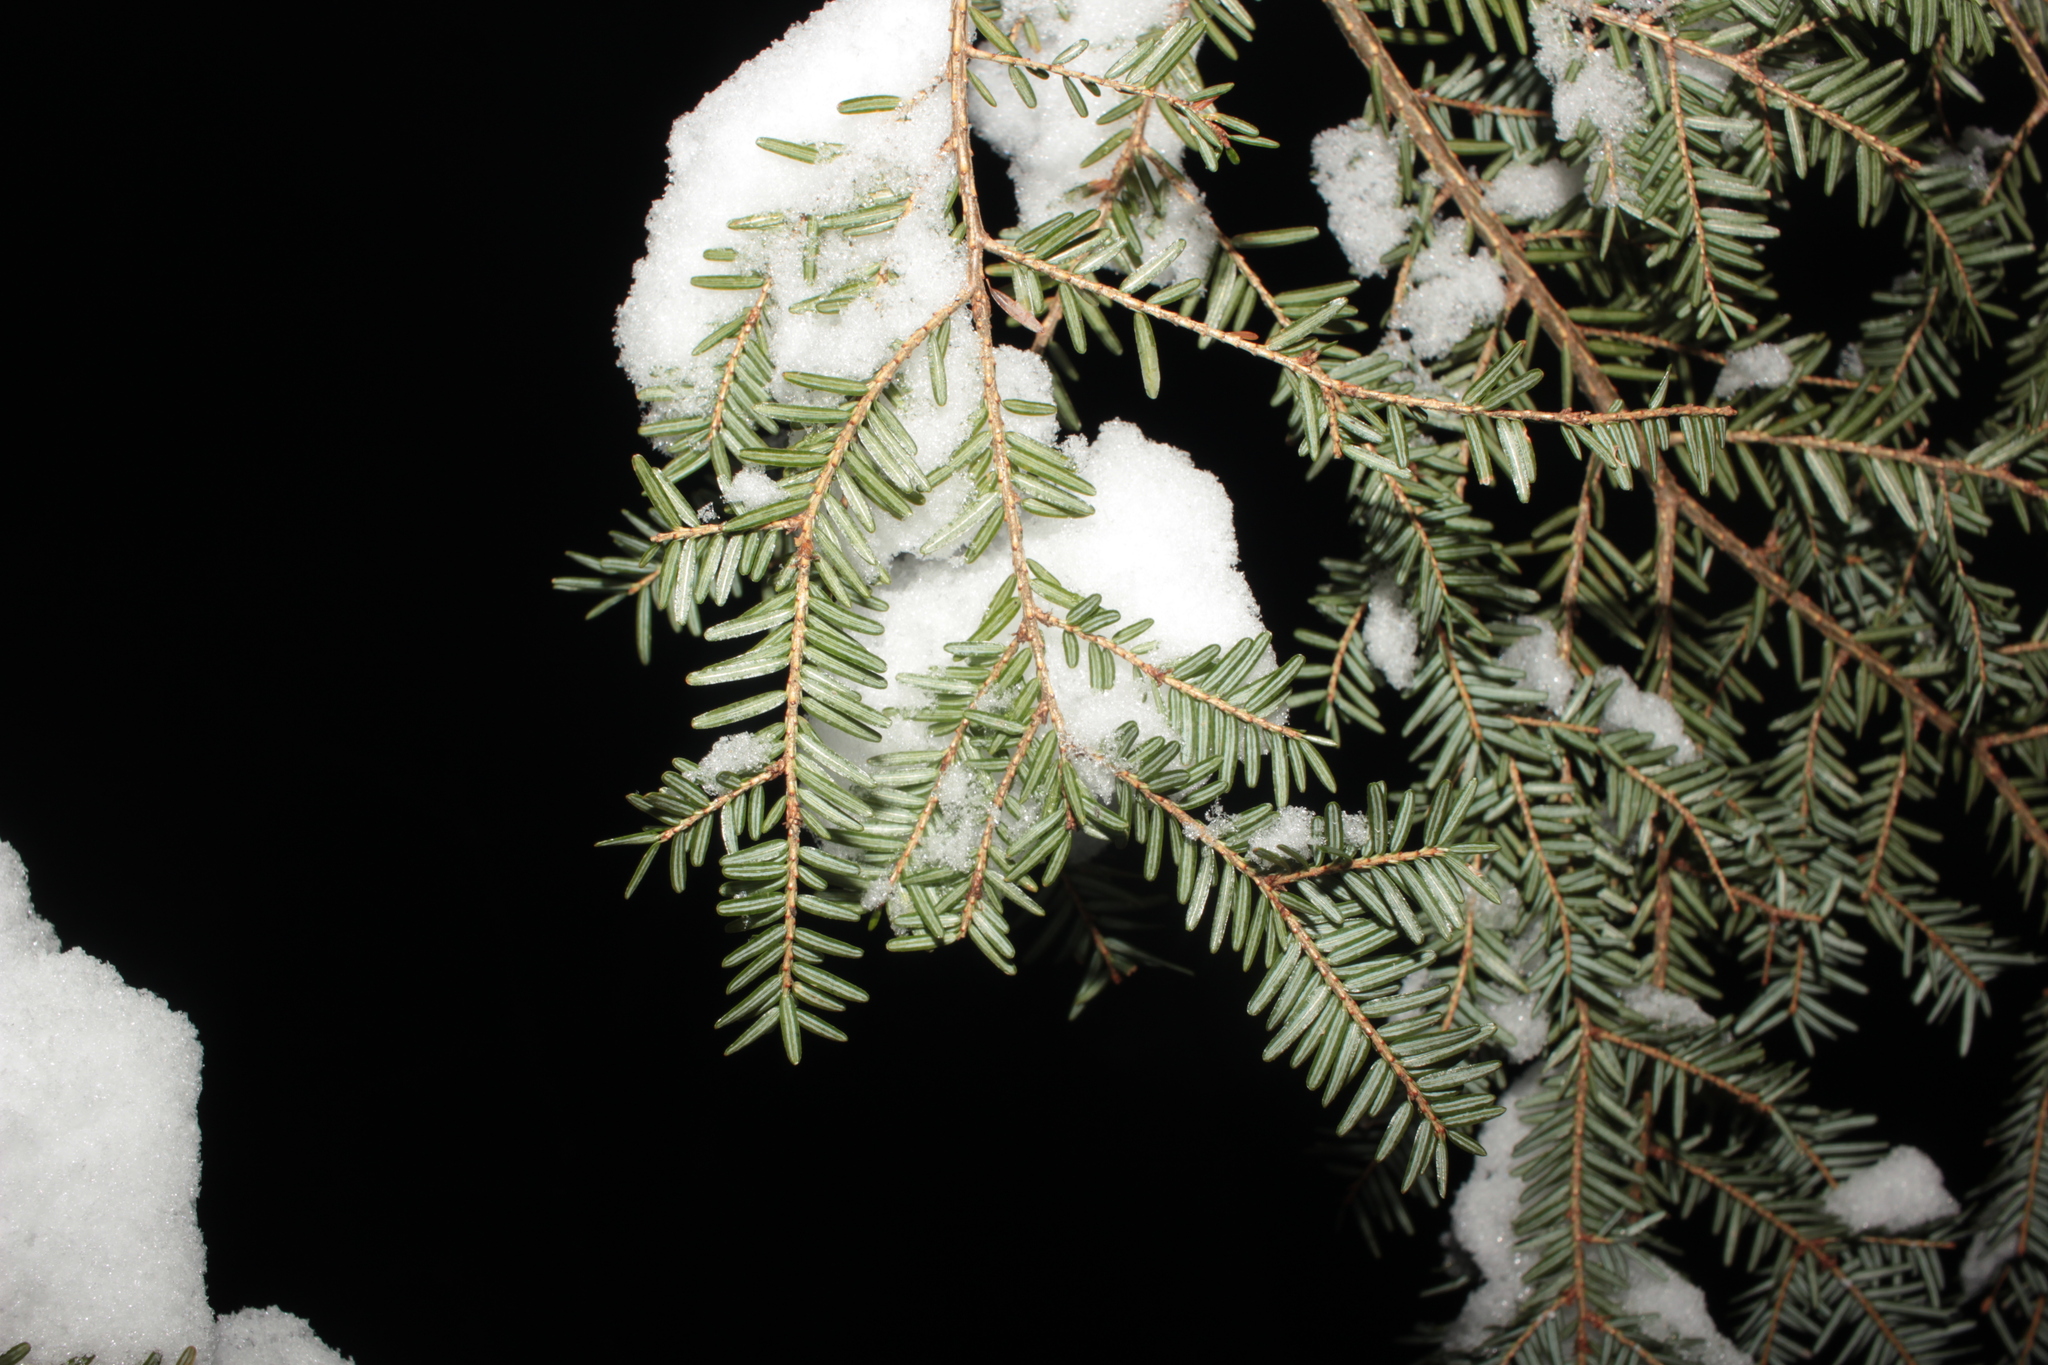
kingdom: Plantae
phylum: Tracheophyta
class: Pinopsida
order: Pinales
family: Pinaceae
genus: Tsuga
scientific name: Tsuga canadensis
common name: Eastern hemlock
